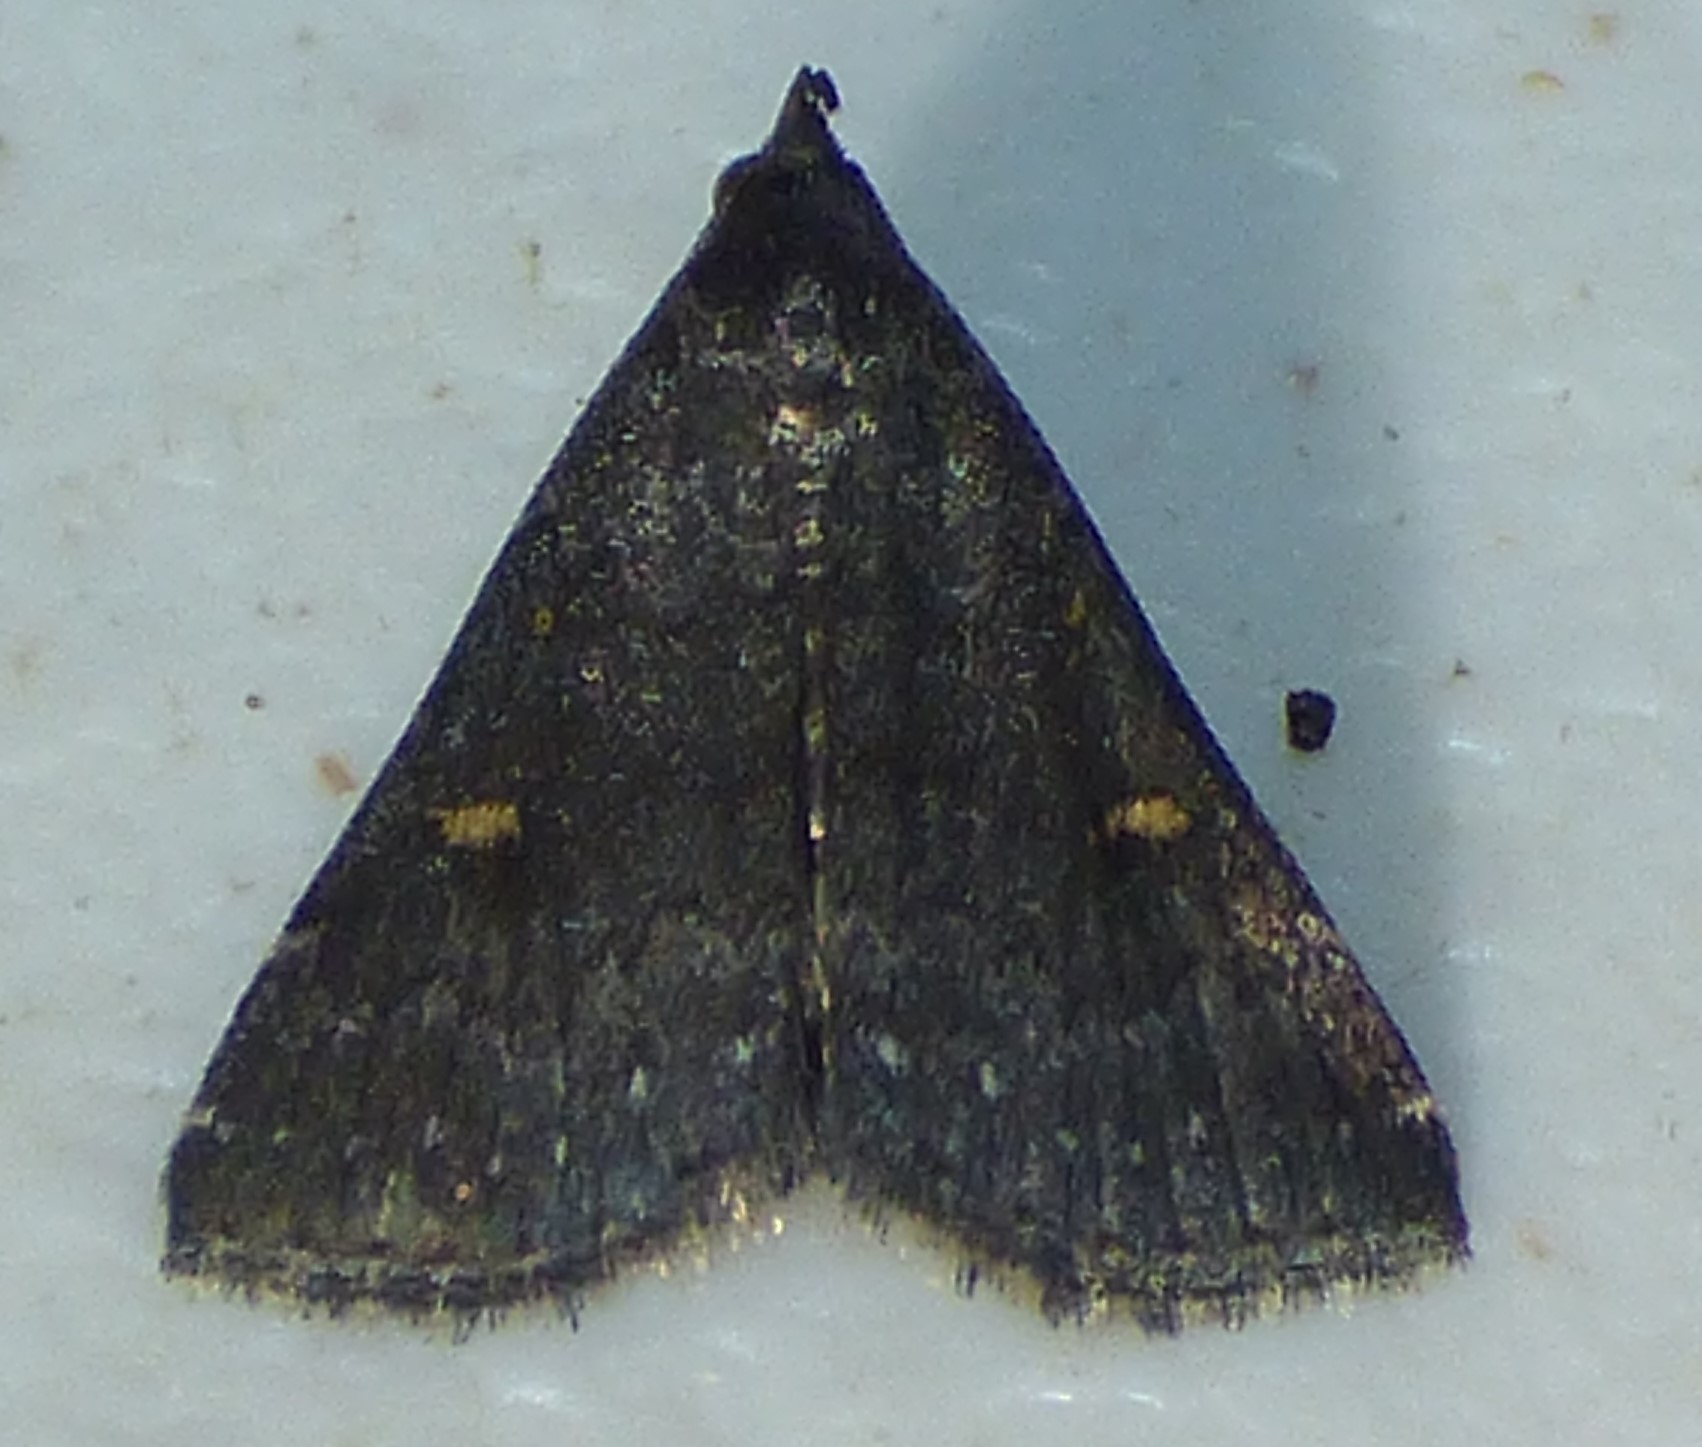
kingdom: Animalia
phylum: Arthropoda
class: Insecta
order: Lepidoptera
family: Erebidae
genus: Tetanolita
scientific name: Tetanolita mynesalis
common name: Smoky tetanolita moth
